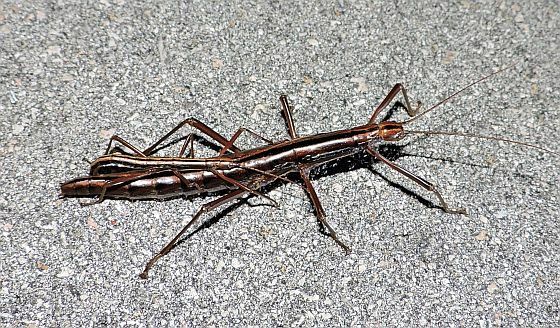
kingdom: Animalia
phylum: Arthropoda
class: Insecta
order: Phasmida
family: Pseudophasmatidae
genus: Anisomorpha
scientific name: Anisomorpha buprestoides
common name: Florida stick insect
